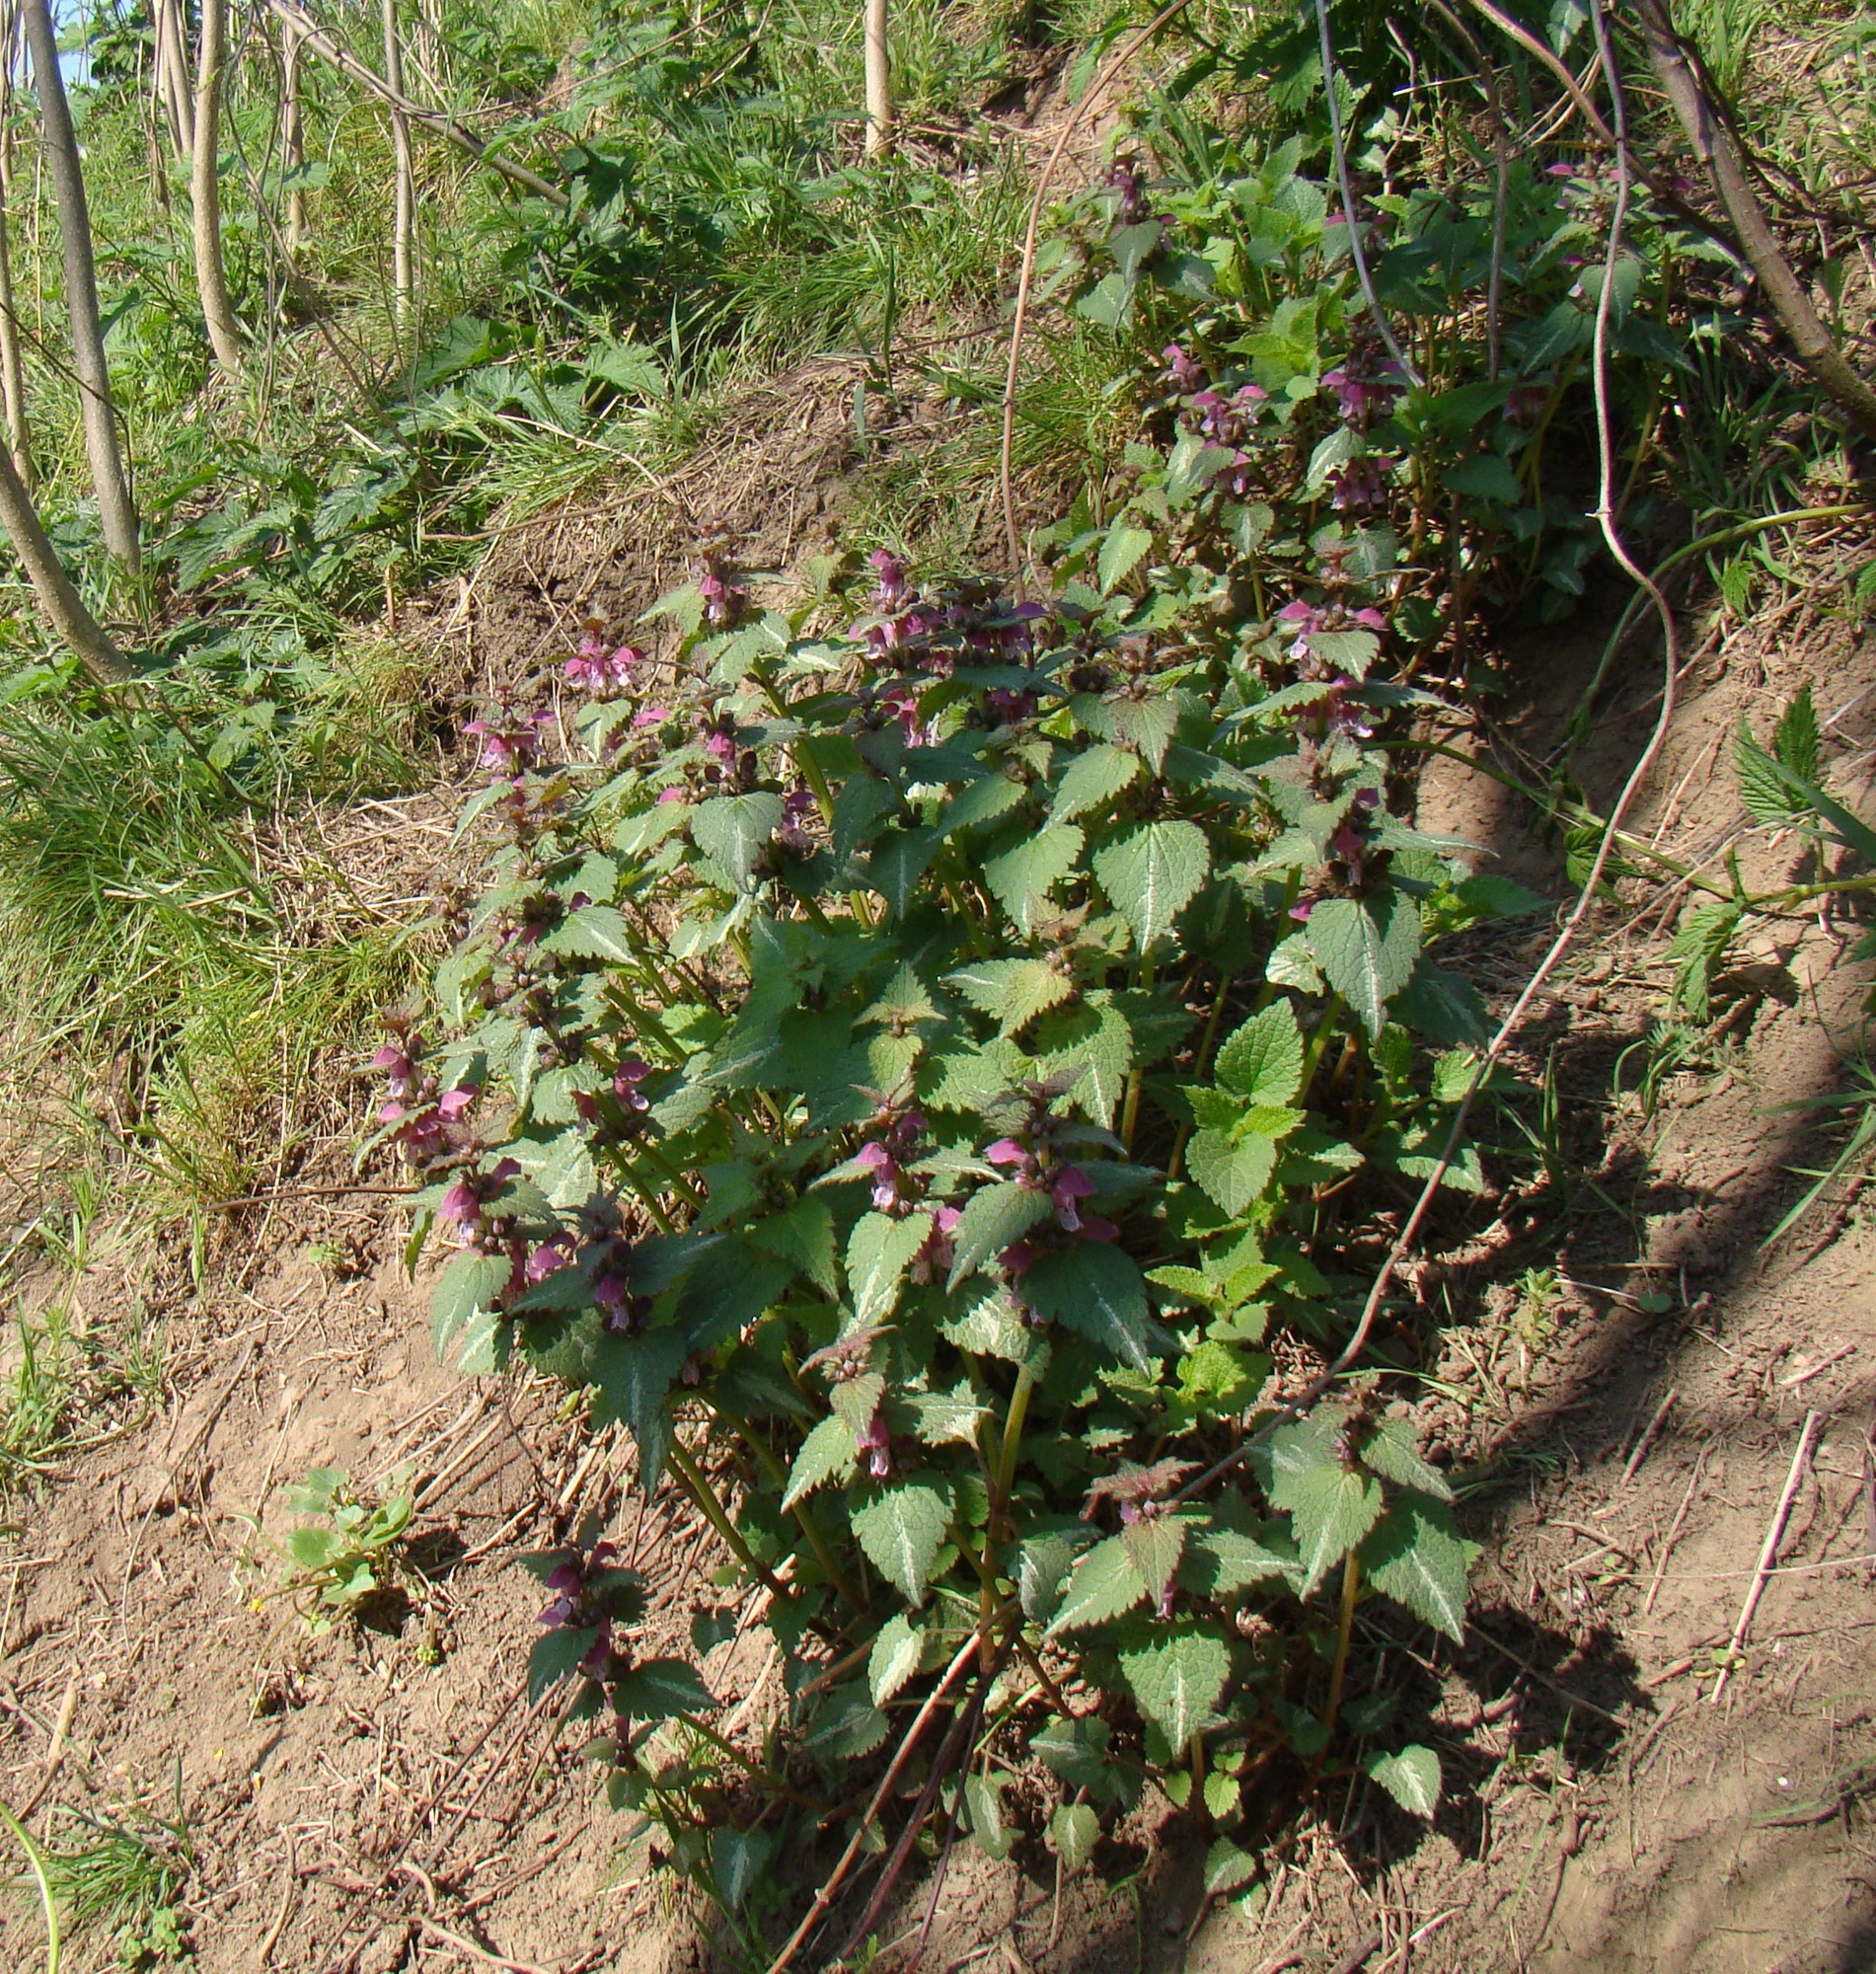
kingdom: Plantae
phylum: Tracheophyta
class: Magnoliopsida
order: Lamiales
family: Lamiaceae
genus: Lamium
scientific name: Lamium maculatum
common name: Spotted dead-nettle
